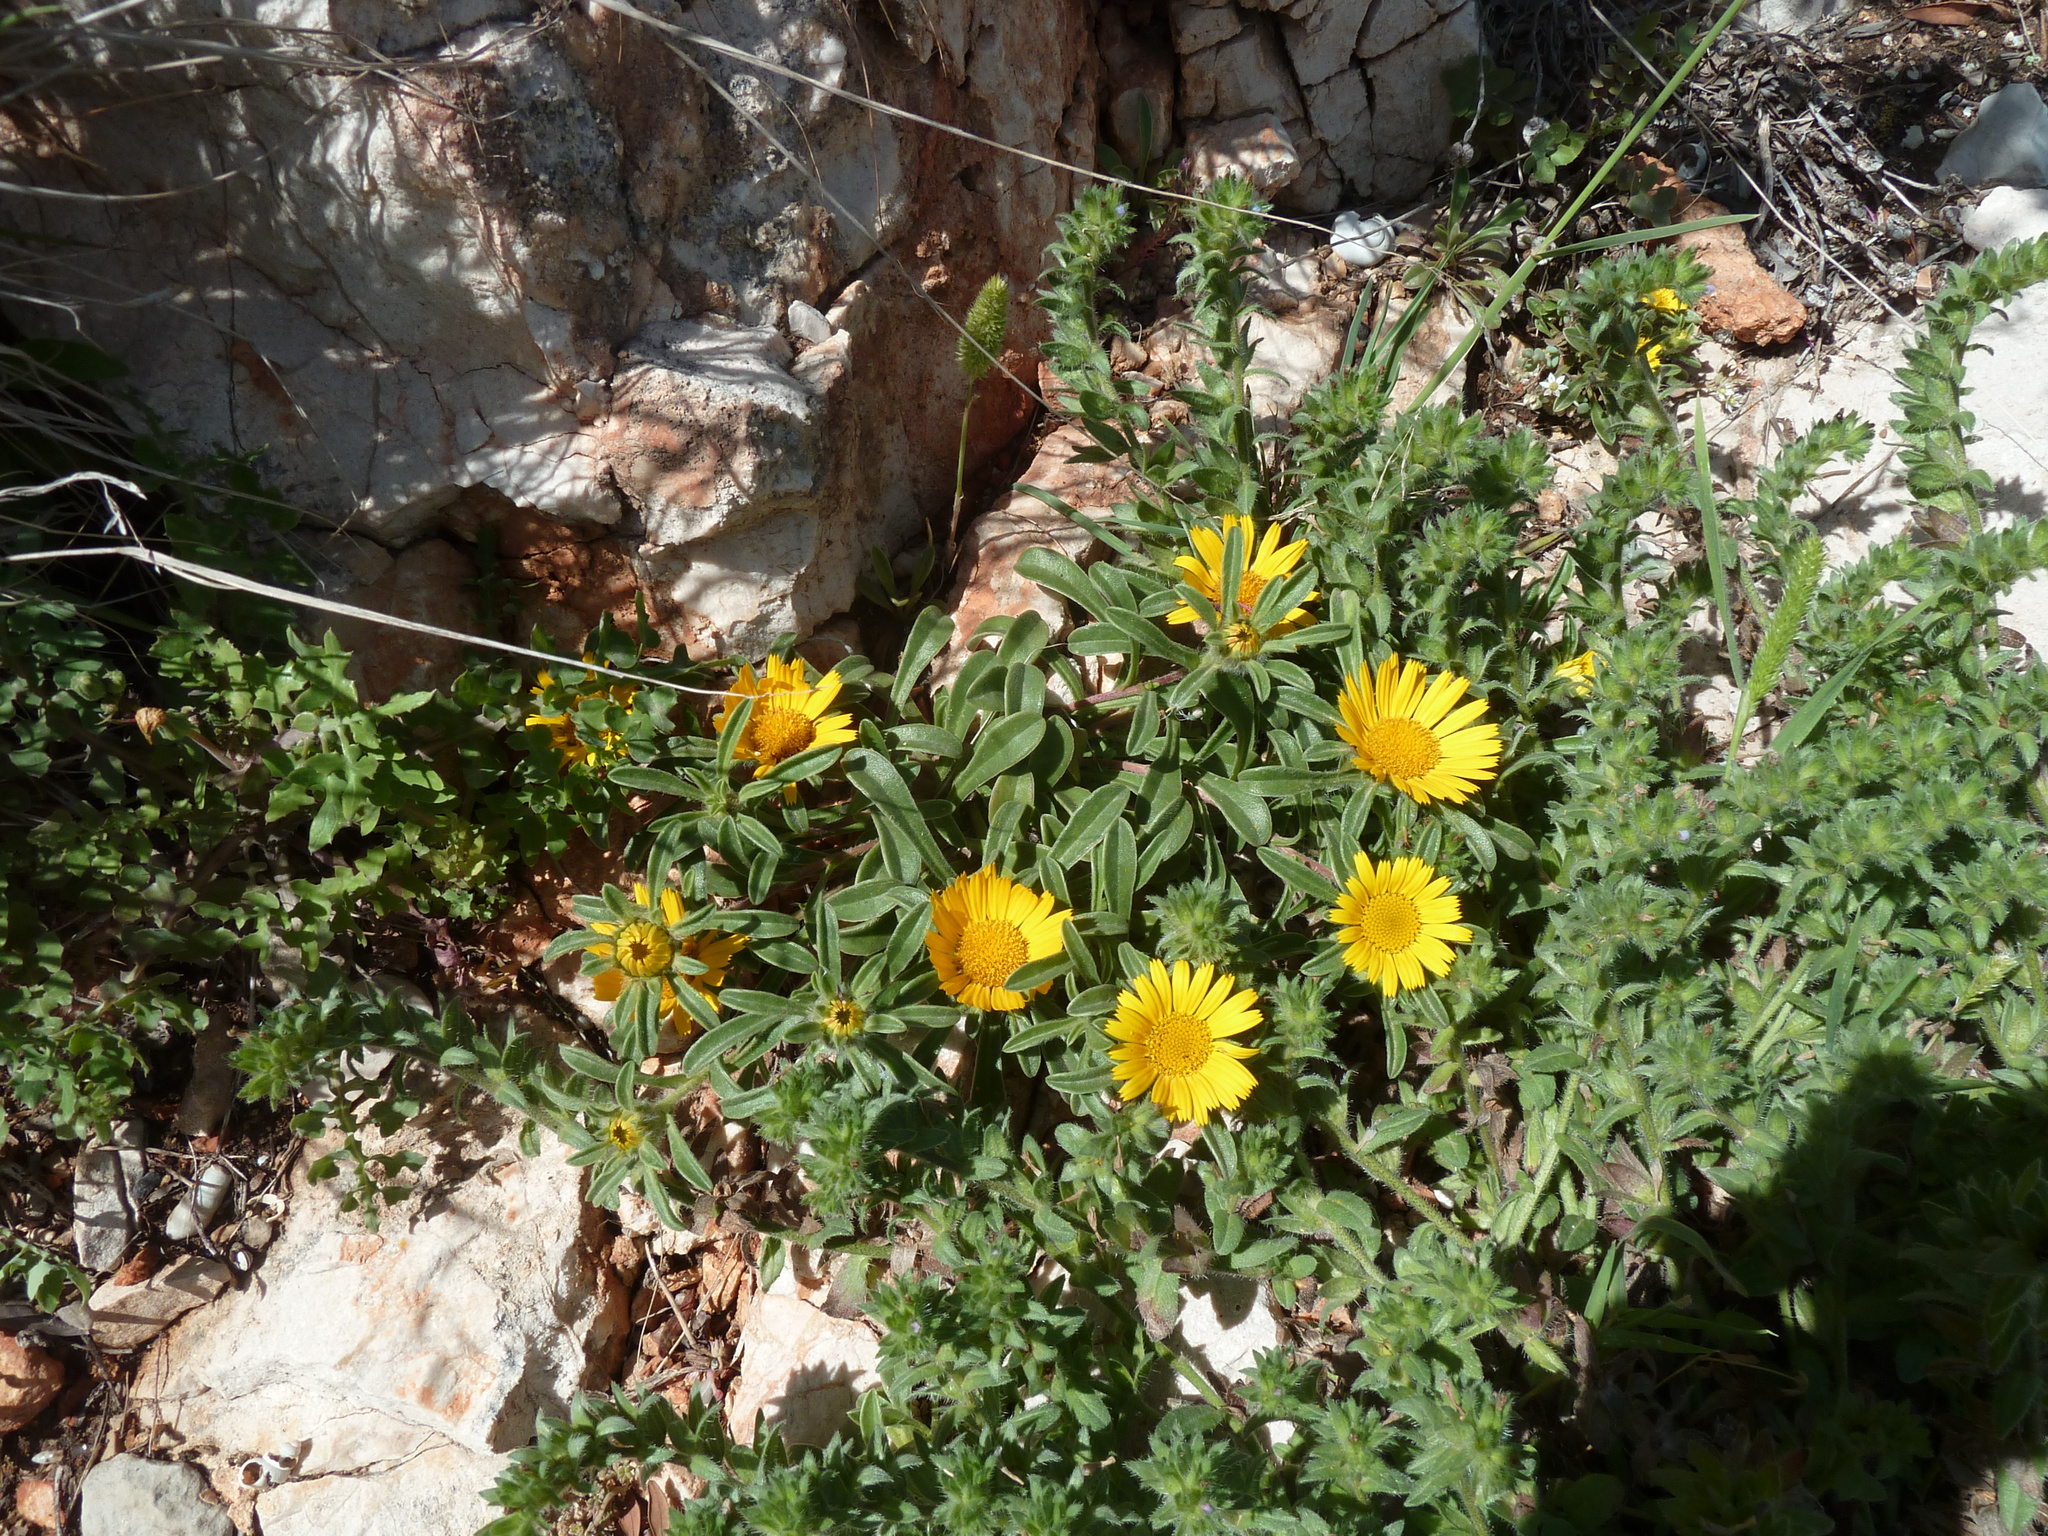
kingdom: Plantae
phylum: Tracheophyta
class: Magnoliopsida
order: Asterales
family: Asteraceae
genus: Pallenis
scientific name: Pallenis maritima
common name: Golden coin daisy
